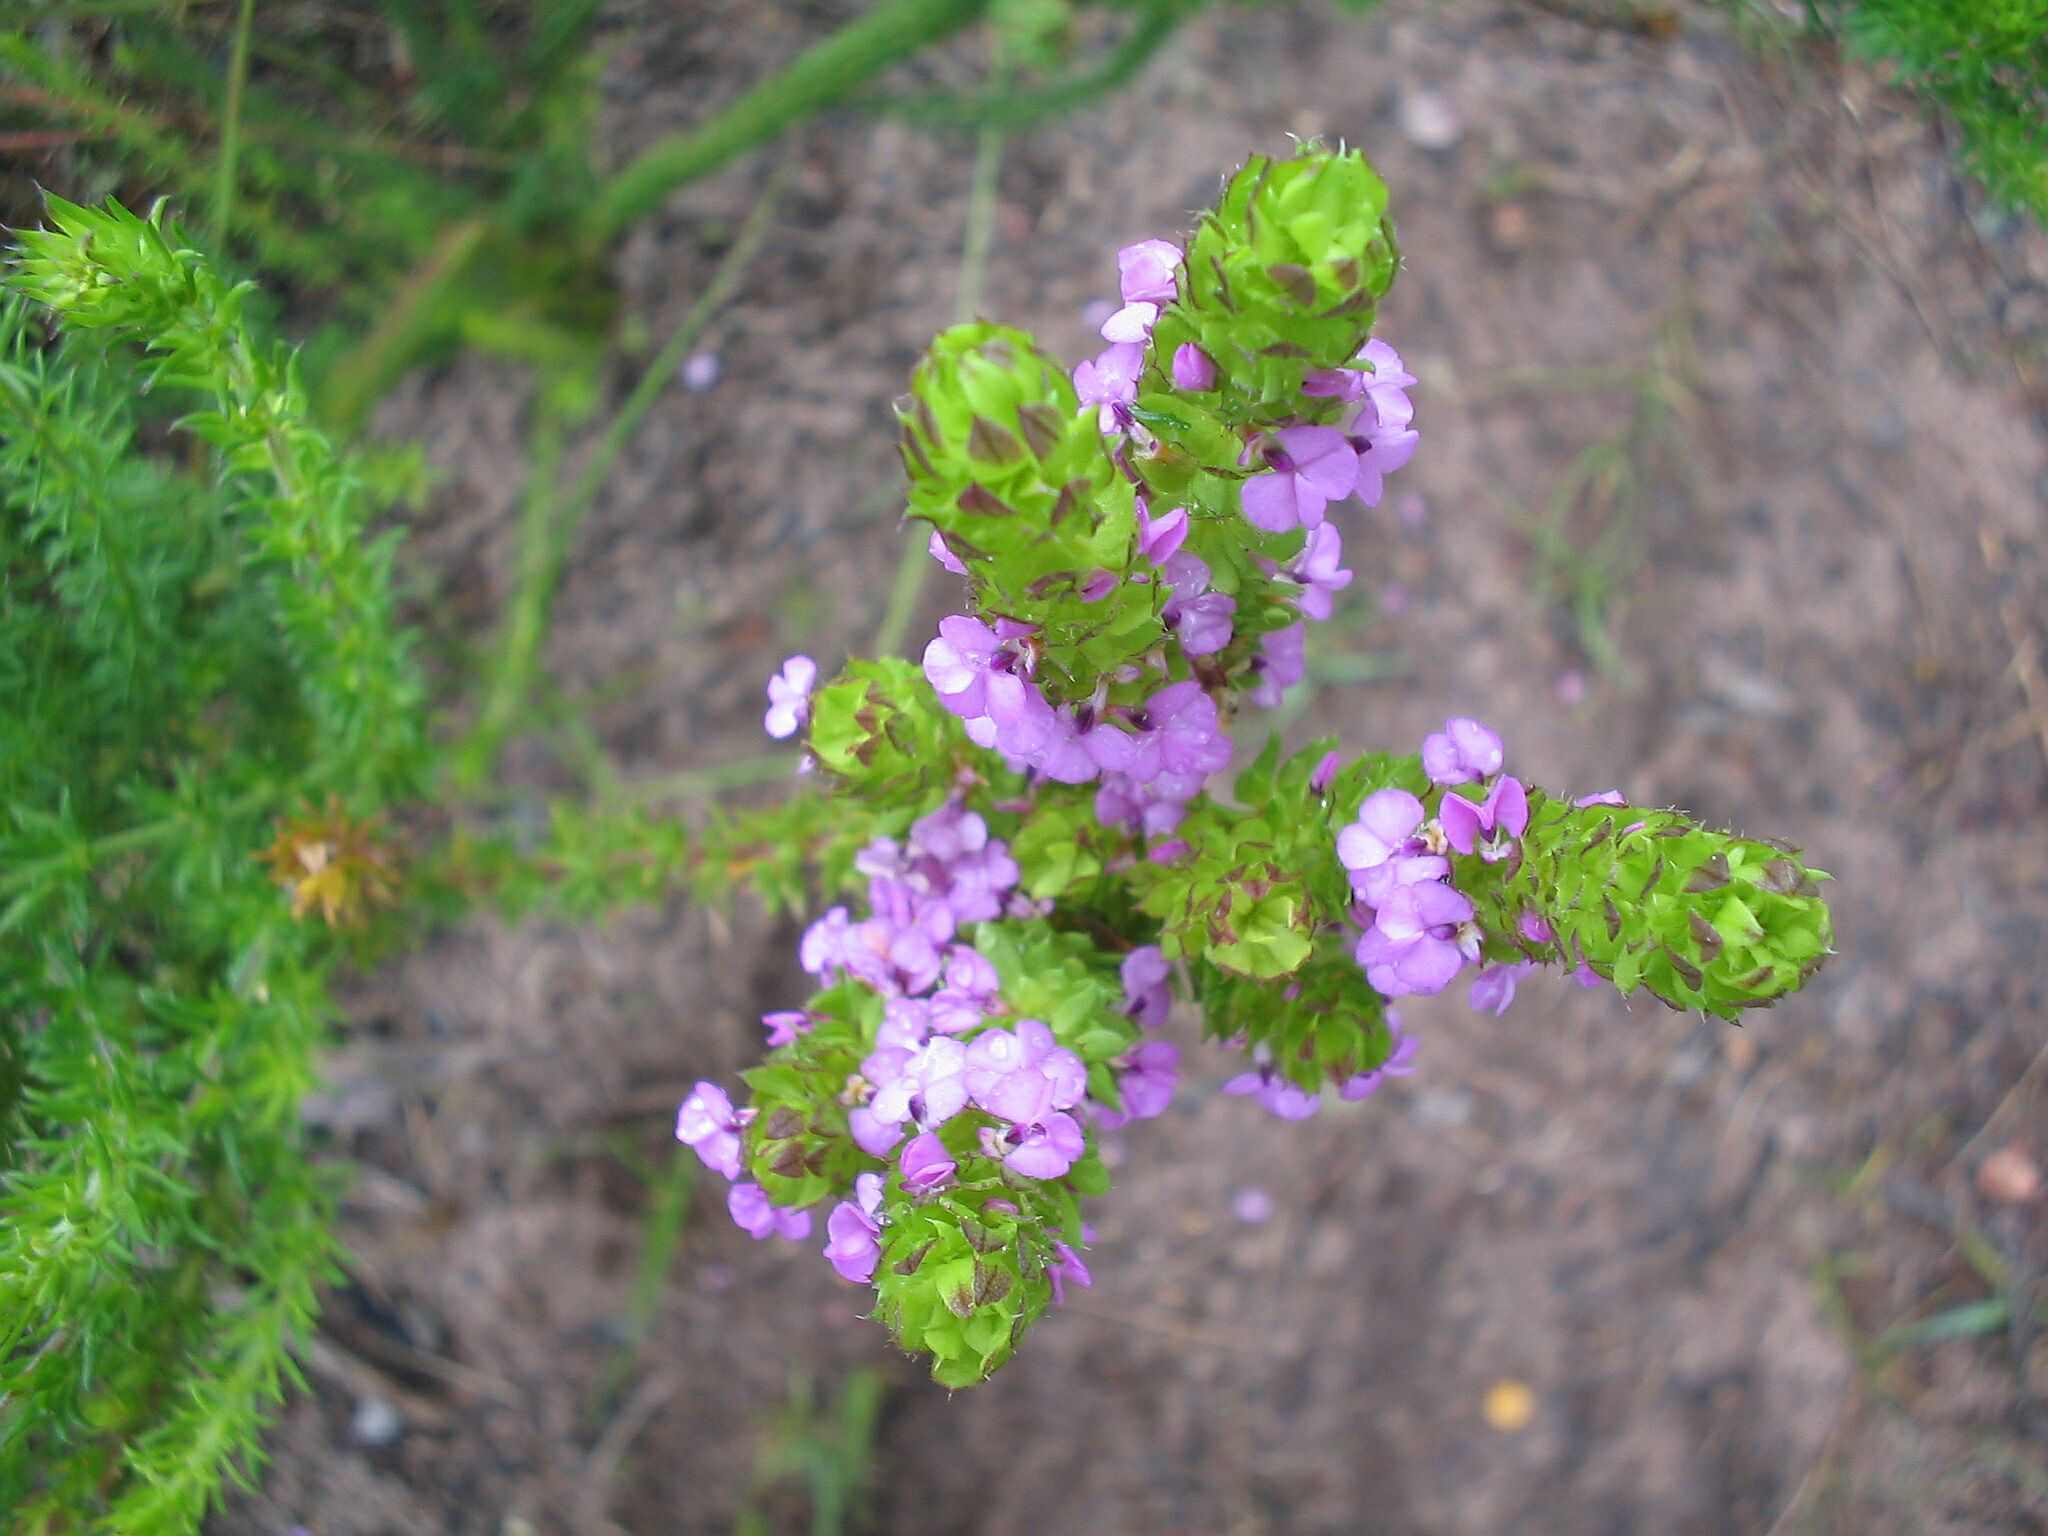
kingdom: Plantae
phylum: Tracheophyta
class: Magnoliopsida
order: Fabales
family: Polygalaceae
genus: Muraltia
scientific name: Muraltia squarrosa
